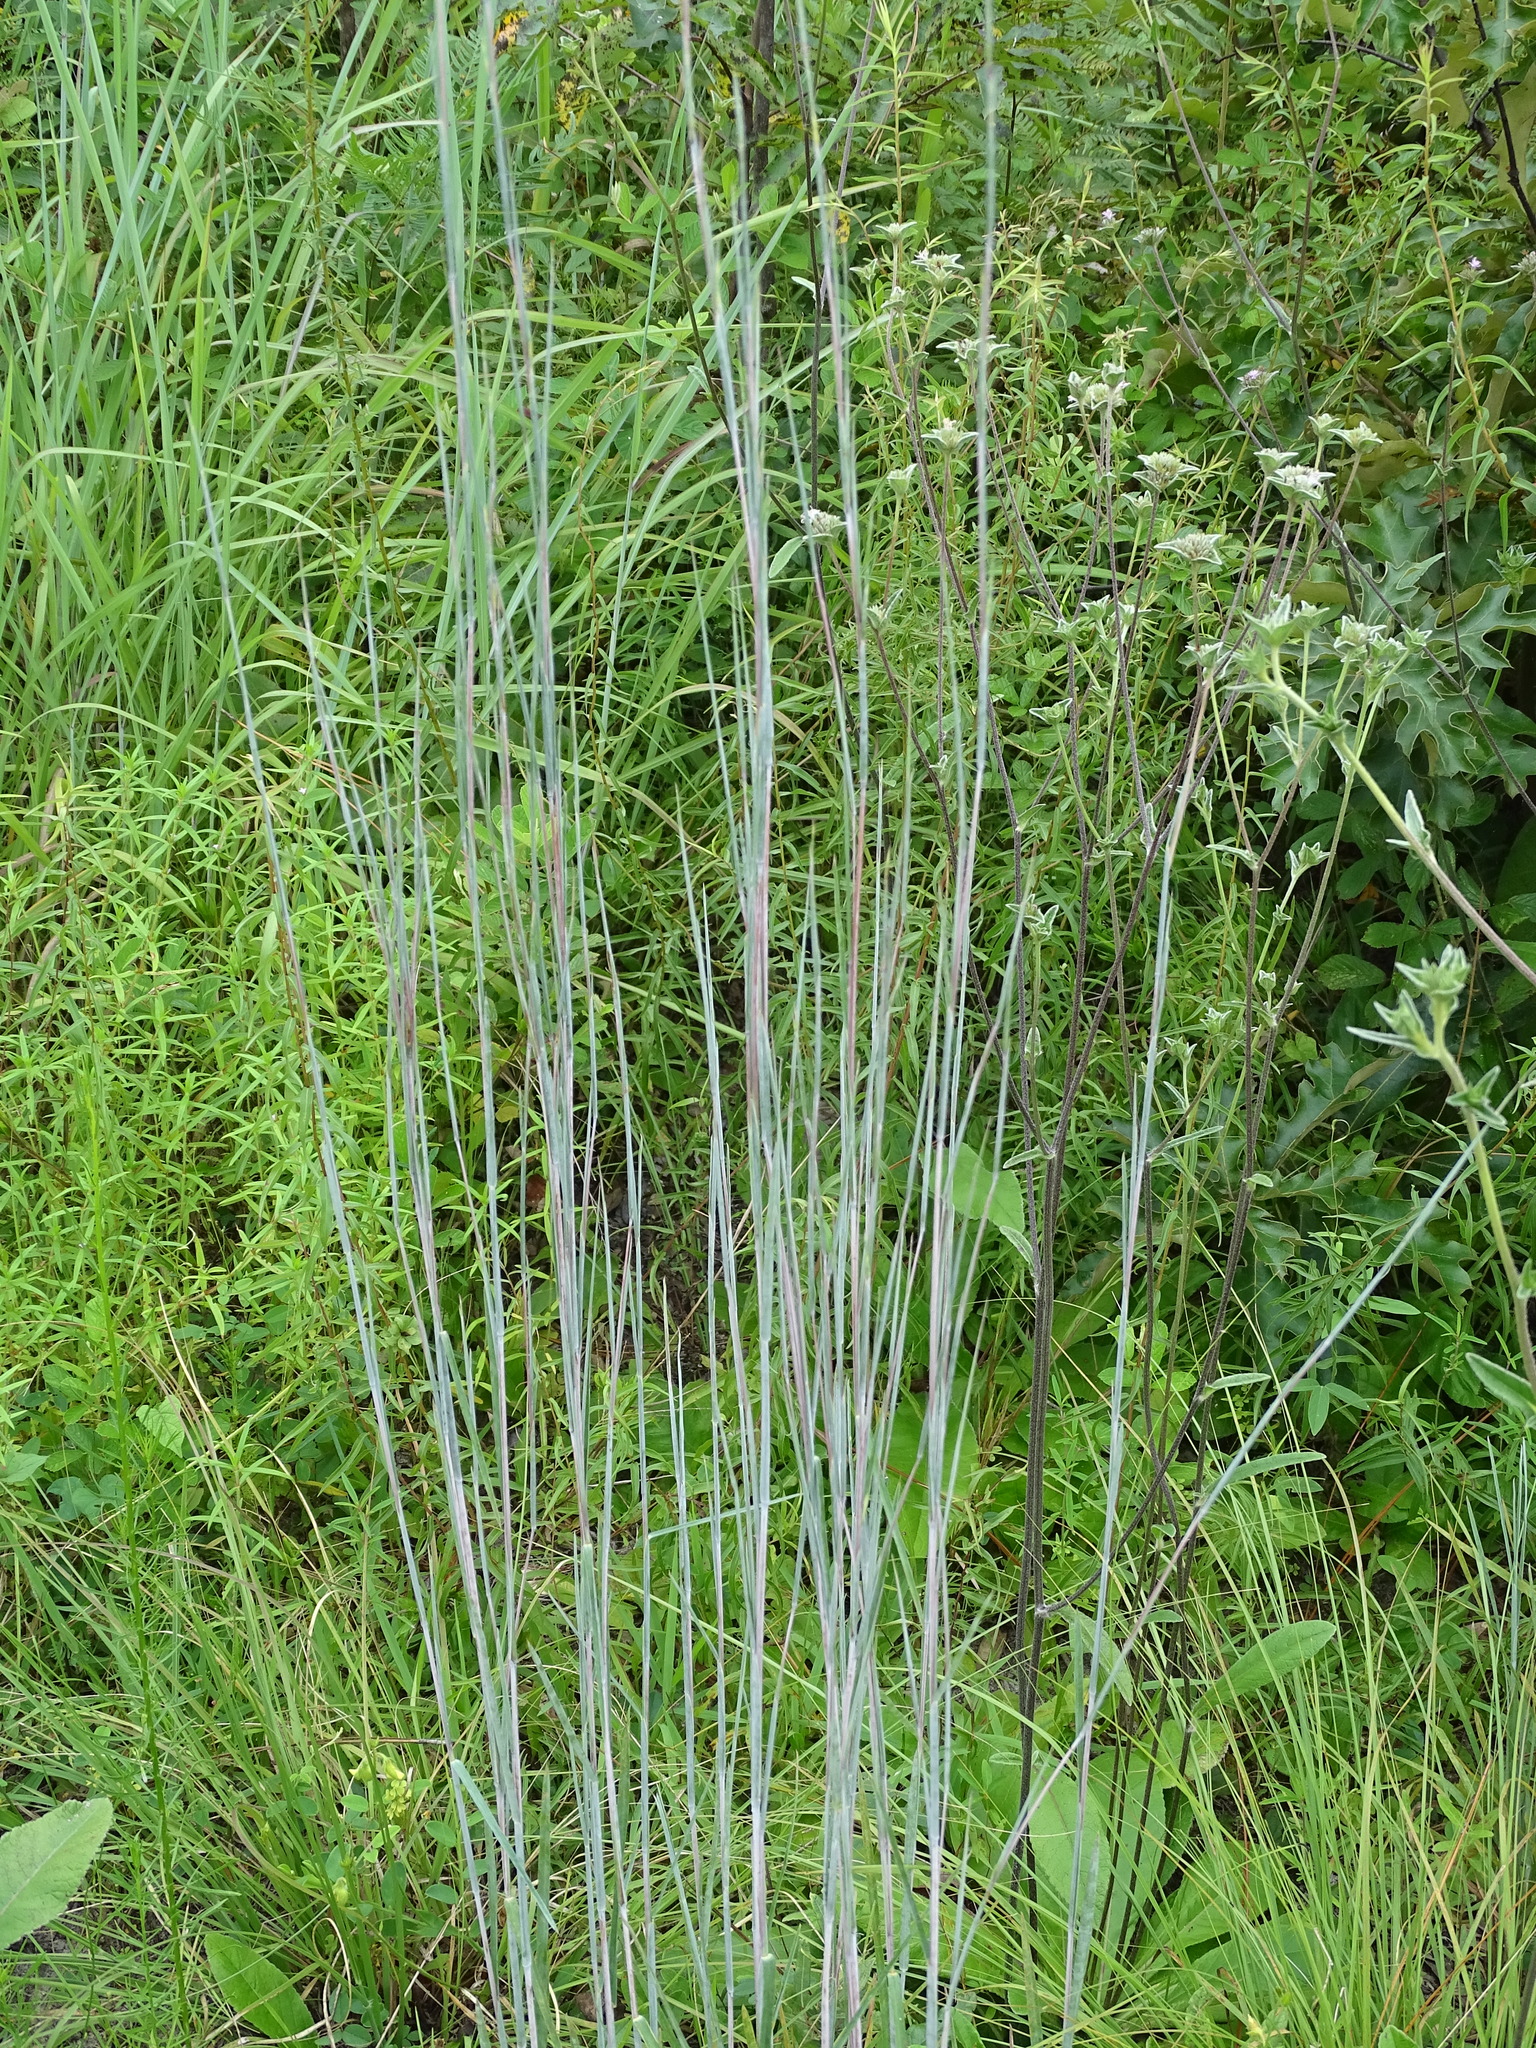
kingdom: Plantae
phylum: Tracheophyta
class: Liliopsida
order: Poales
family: Poaceae
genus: Andropogon
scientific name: Andropogon cretaceus
